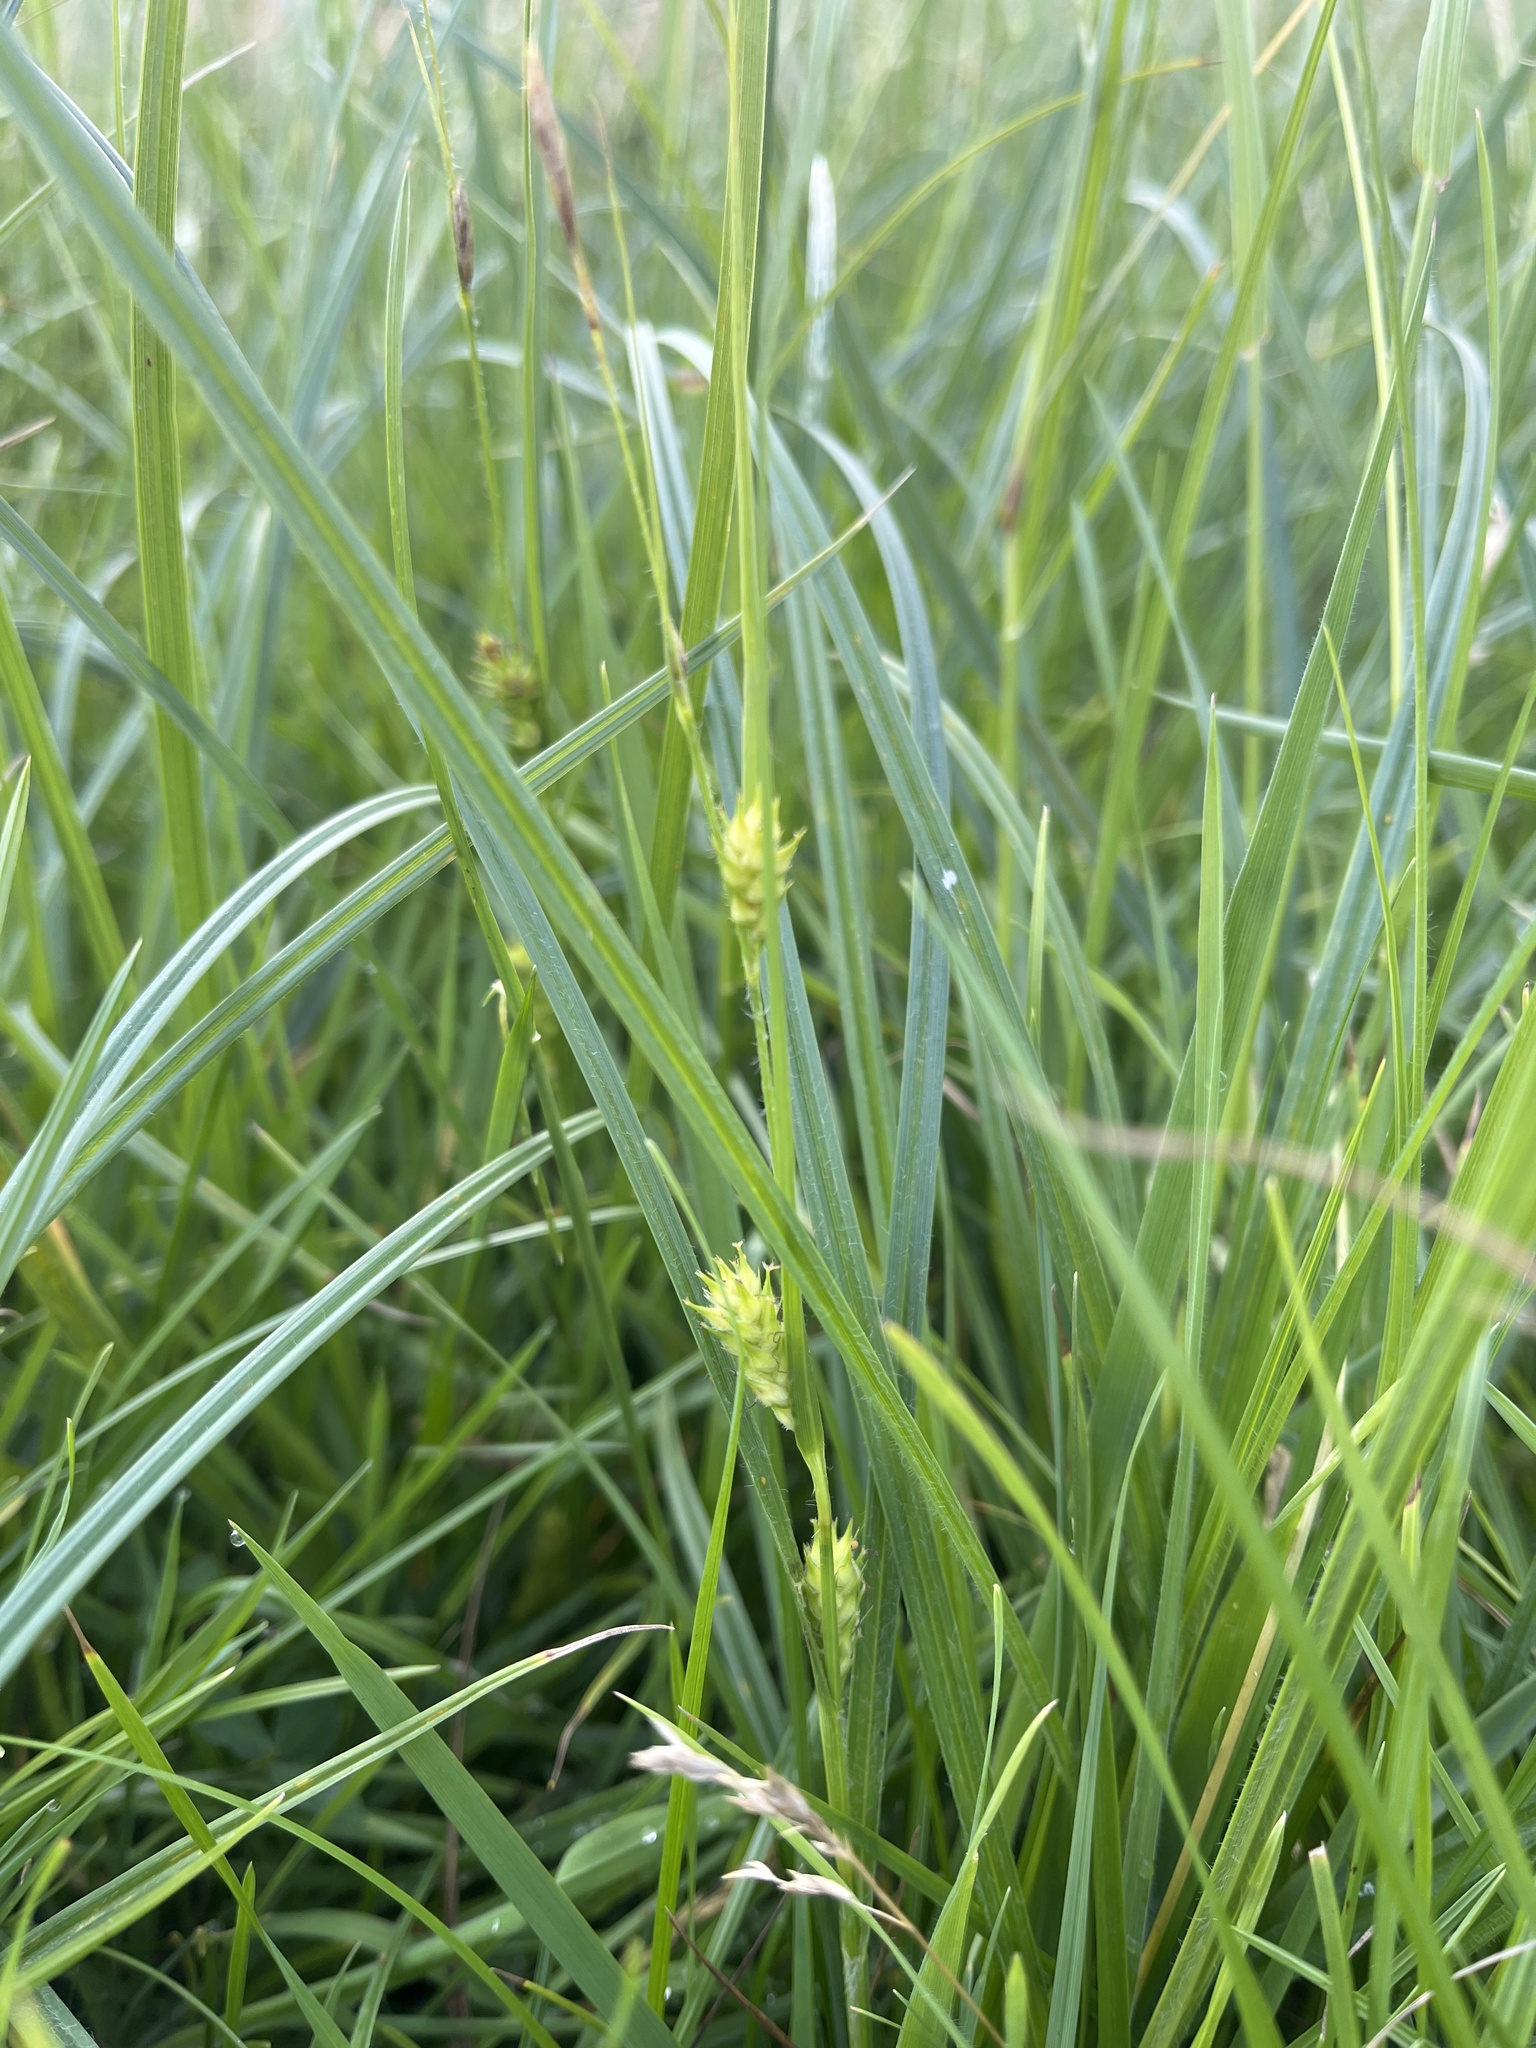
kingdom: Plantae
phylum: Tracheophyta
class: Liliopsida
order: Poales
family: Cyperaceae
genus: Carex
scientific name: Carex hirta
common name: Hairy sedge
